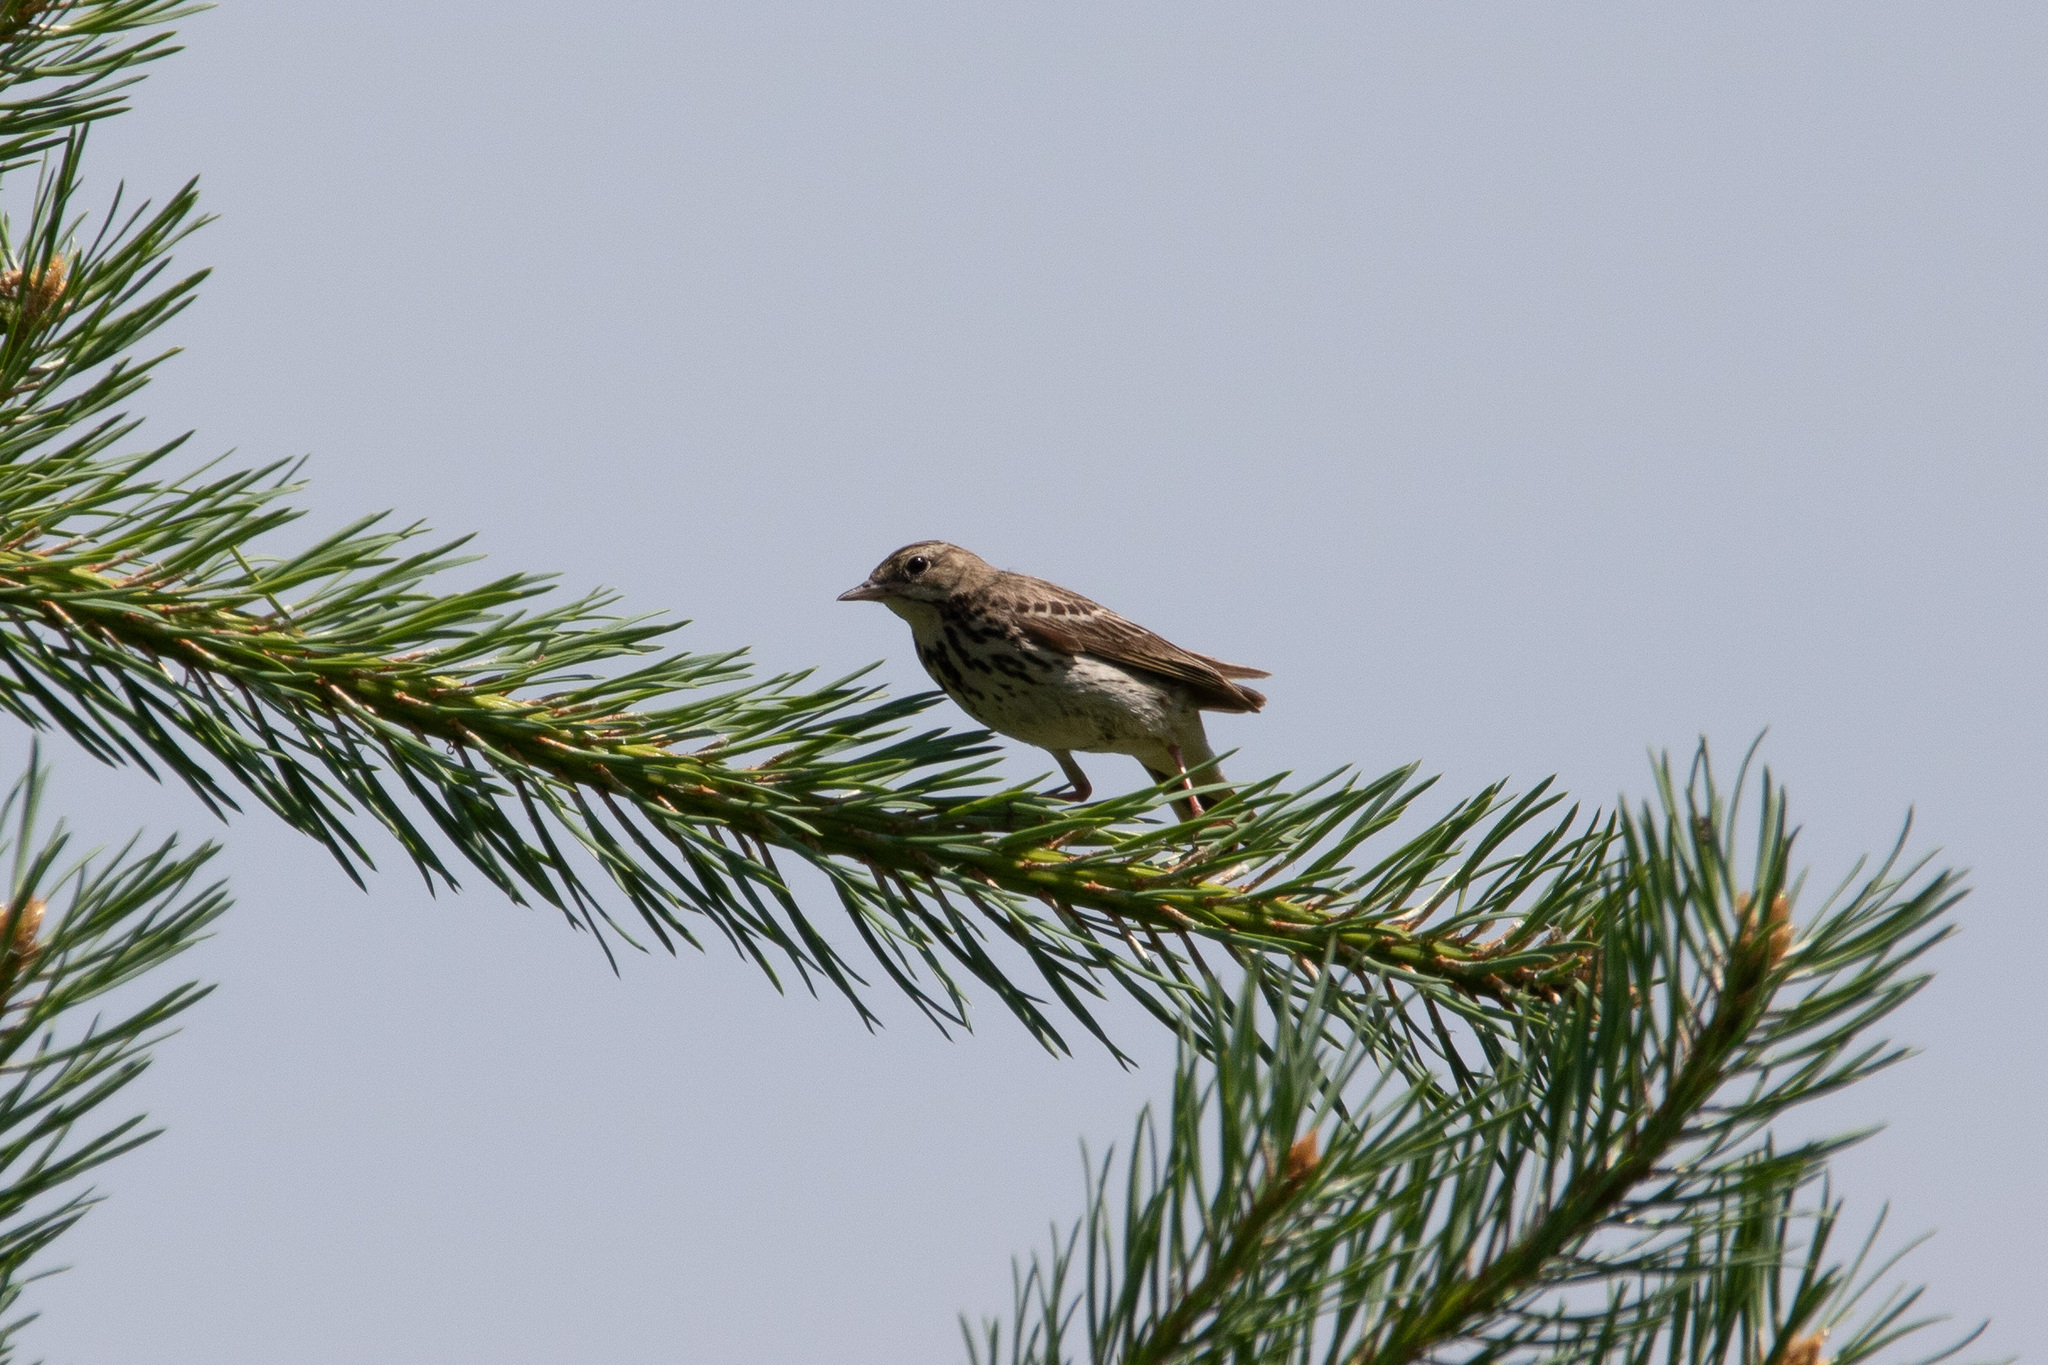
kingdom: Animalia
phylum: Chordata
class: Aves
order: Passeriformes
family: Motacillidae
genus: Anthus
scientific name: Anthus trivialis
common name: Tree pipit
